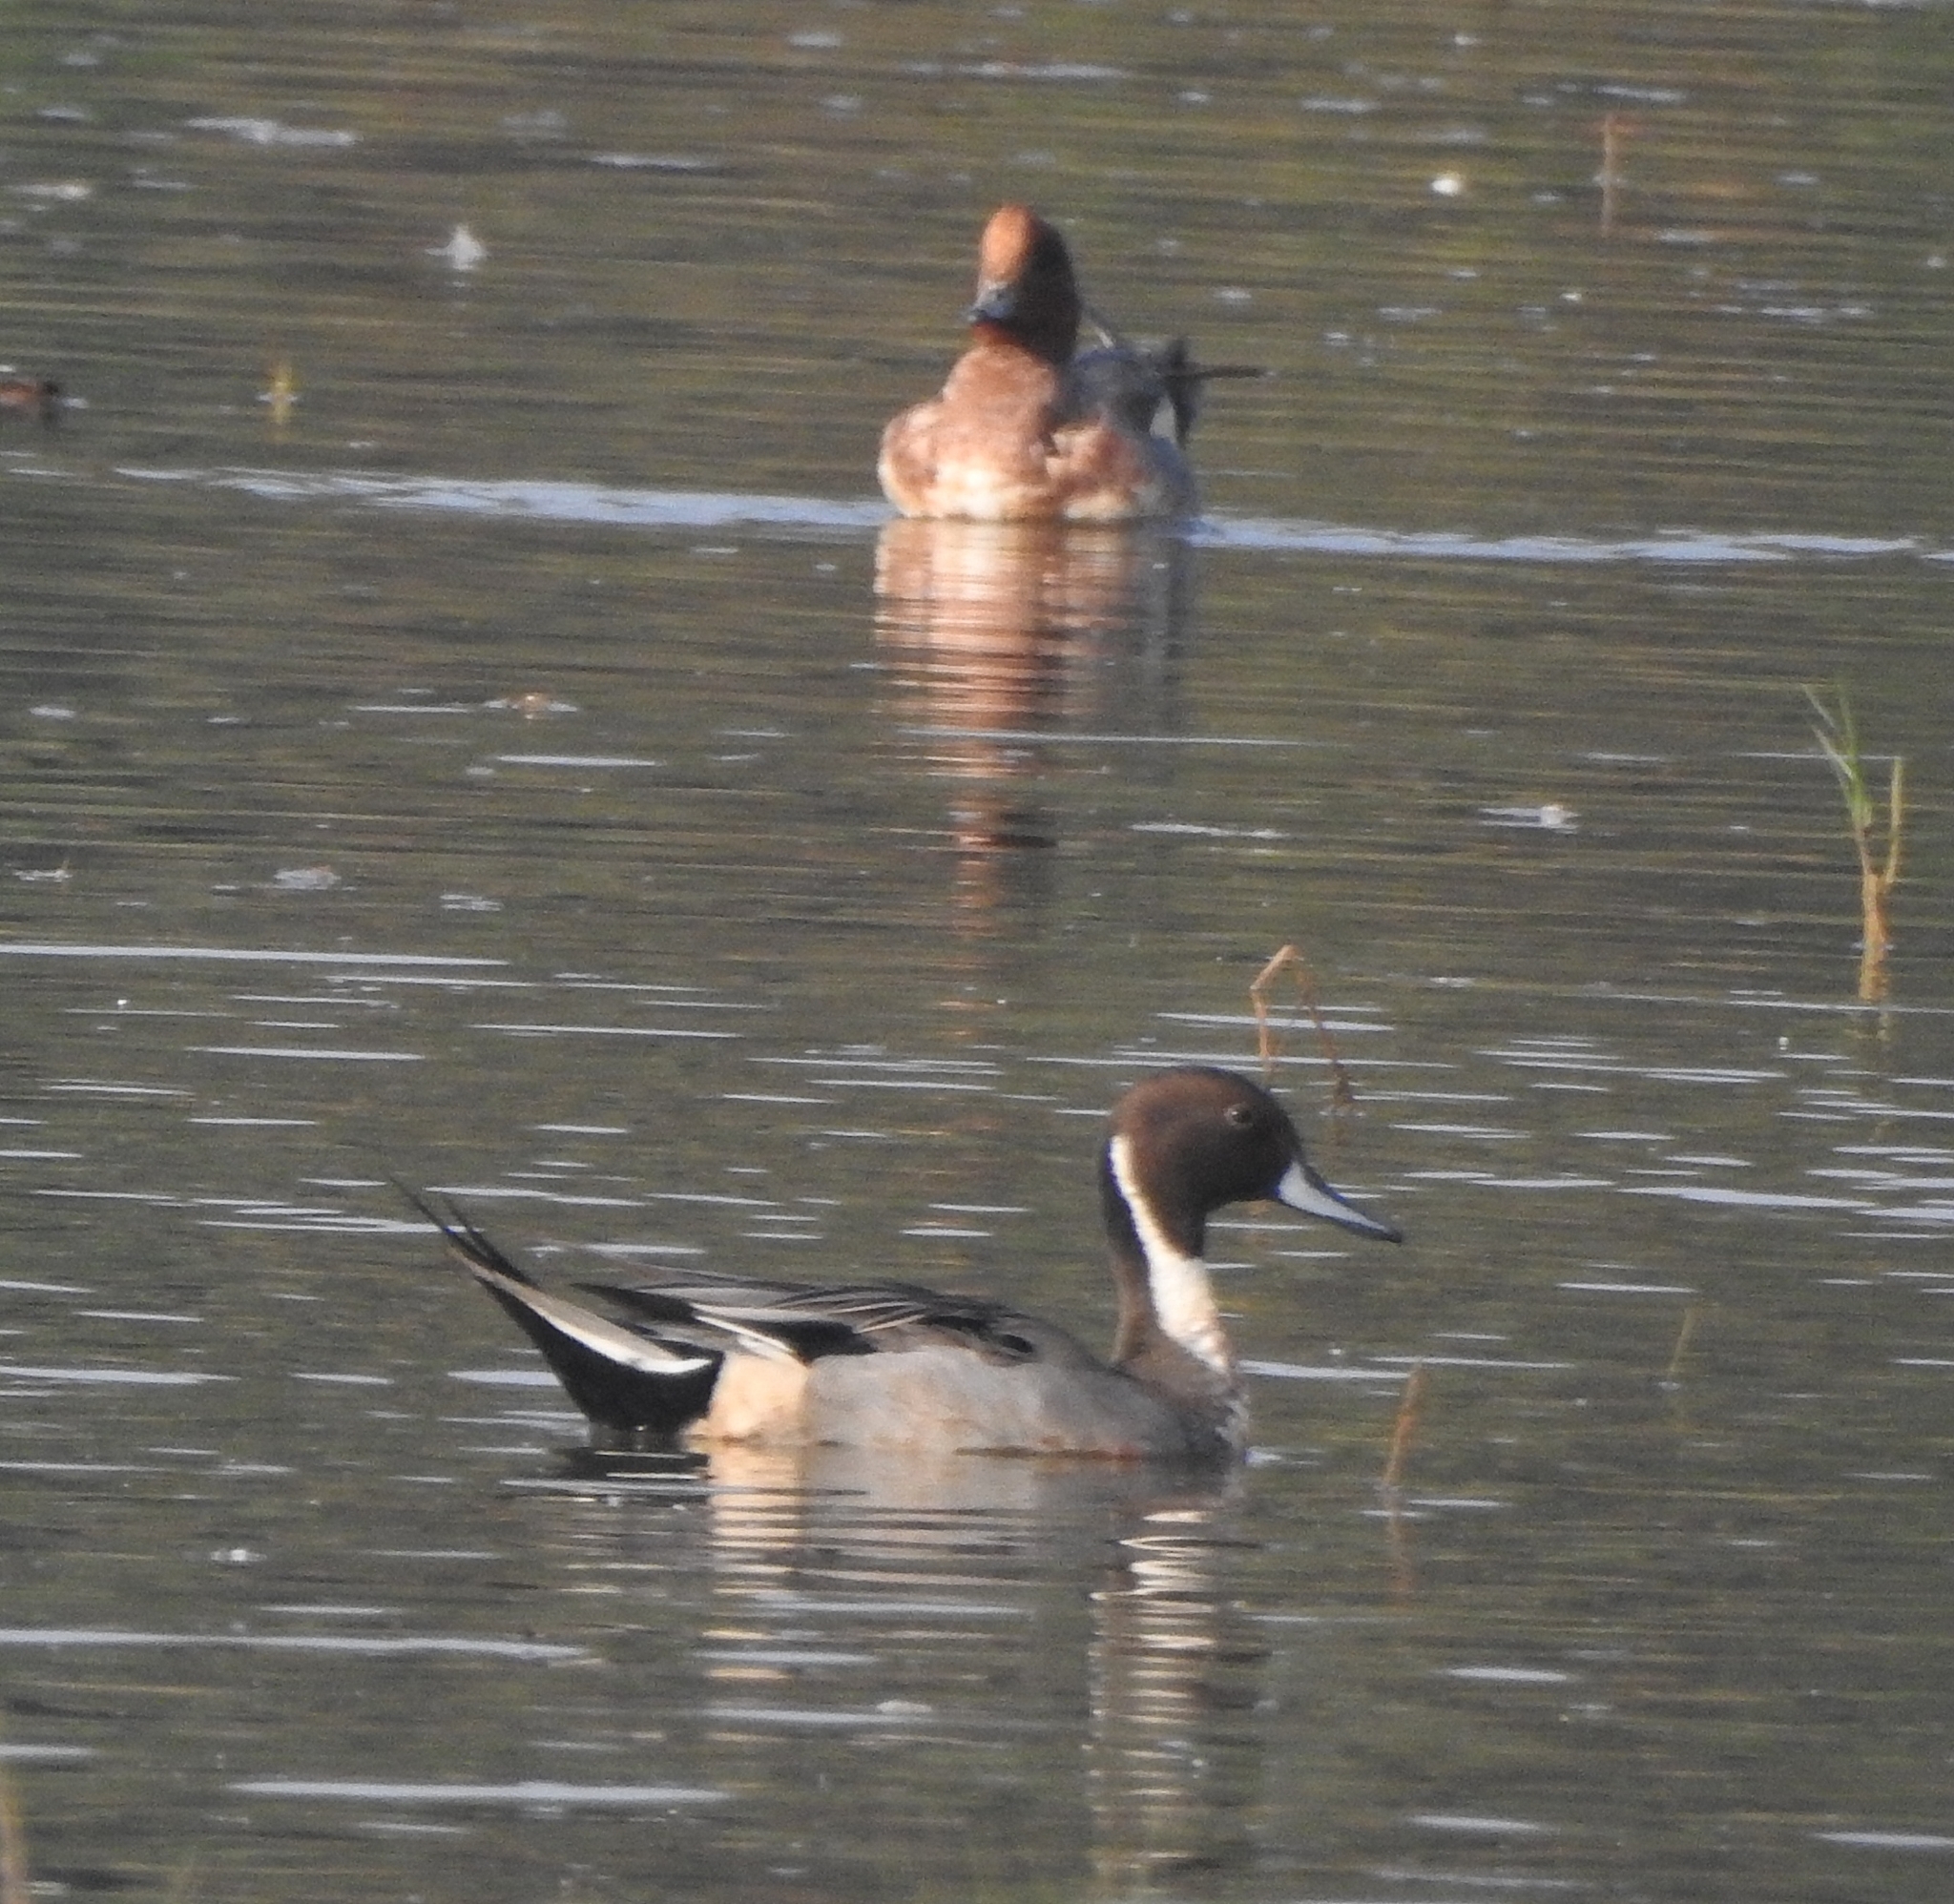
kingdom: Animalia
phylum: Chordata
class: Aves
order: Anseriformes
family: Anatidae
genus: Anas
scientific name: Anas acuta
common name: Northern pintail
